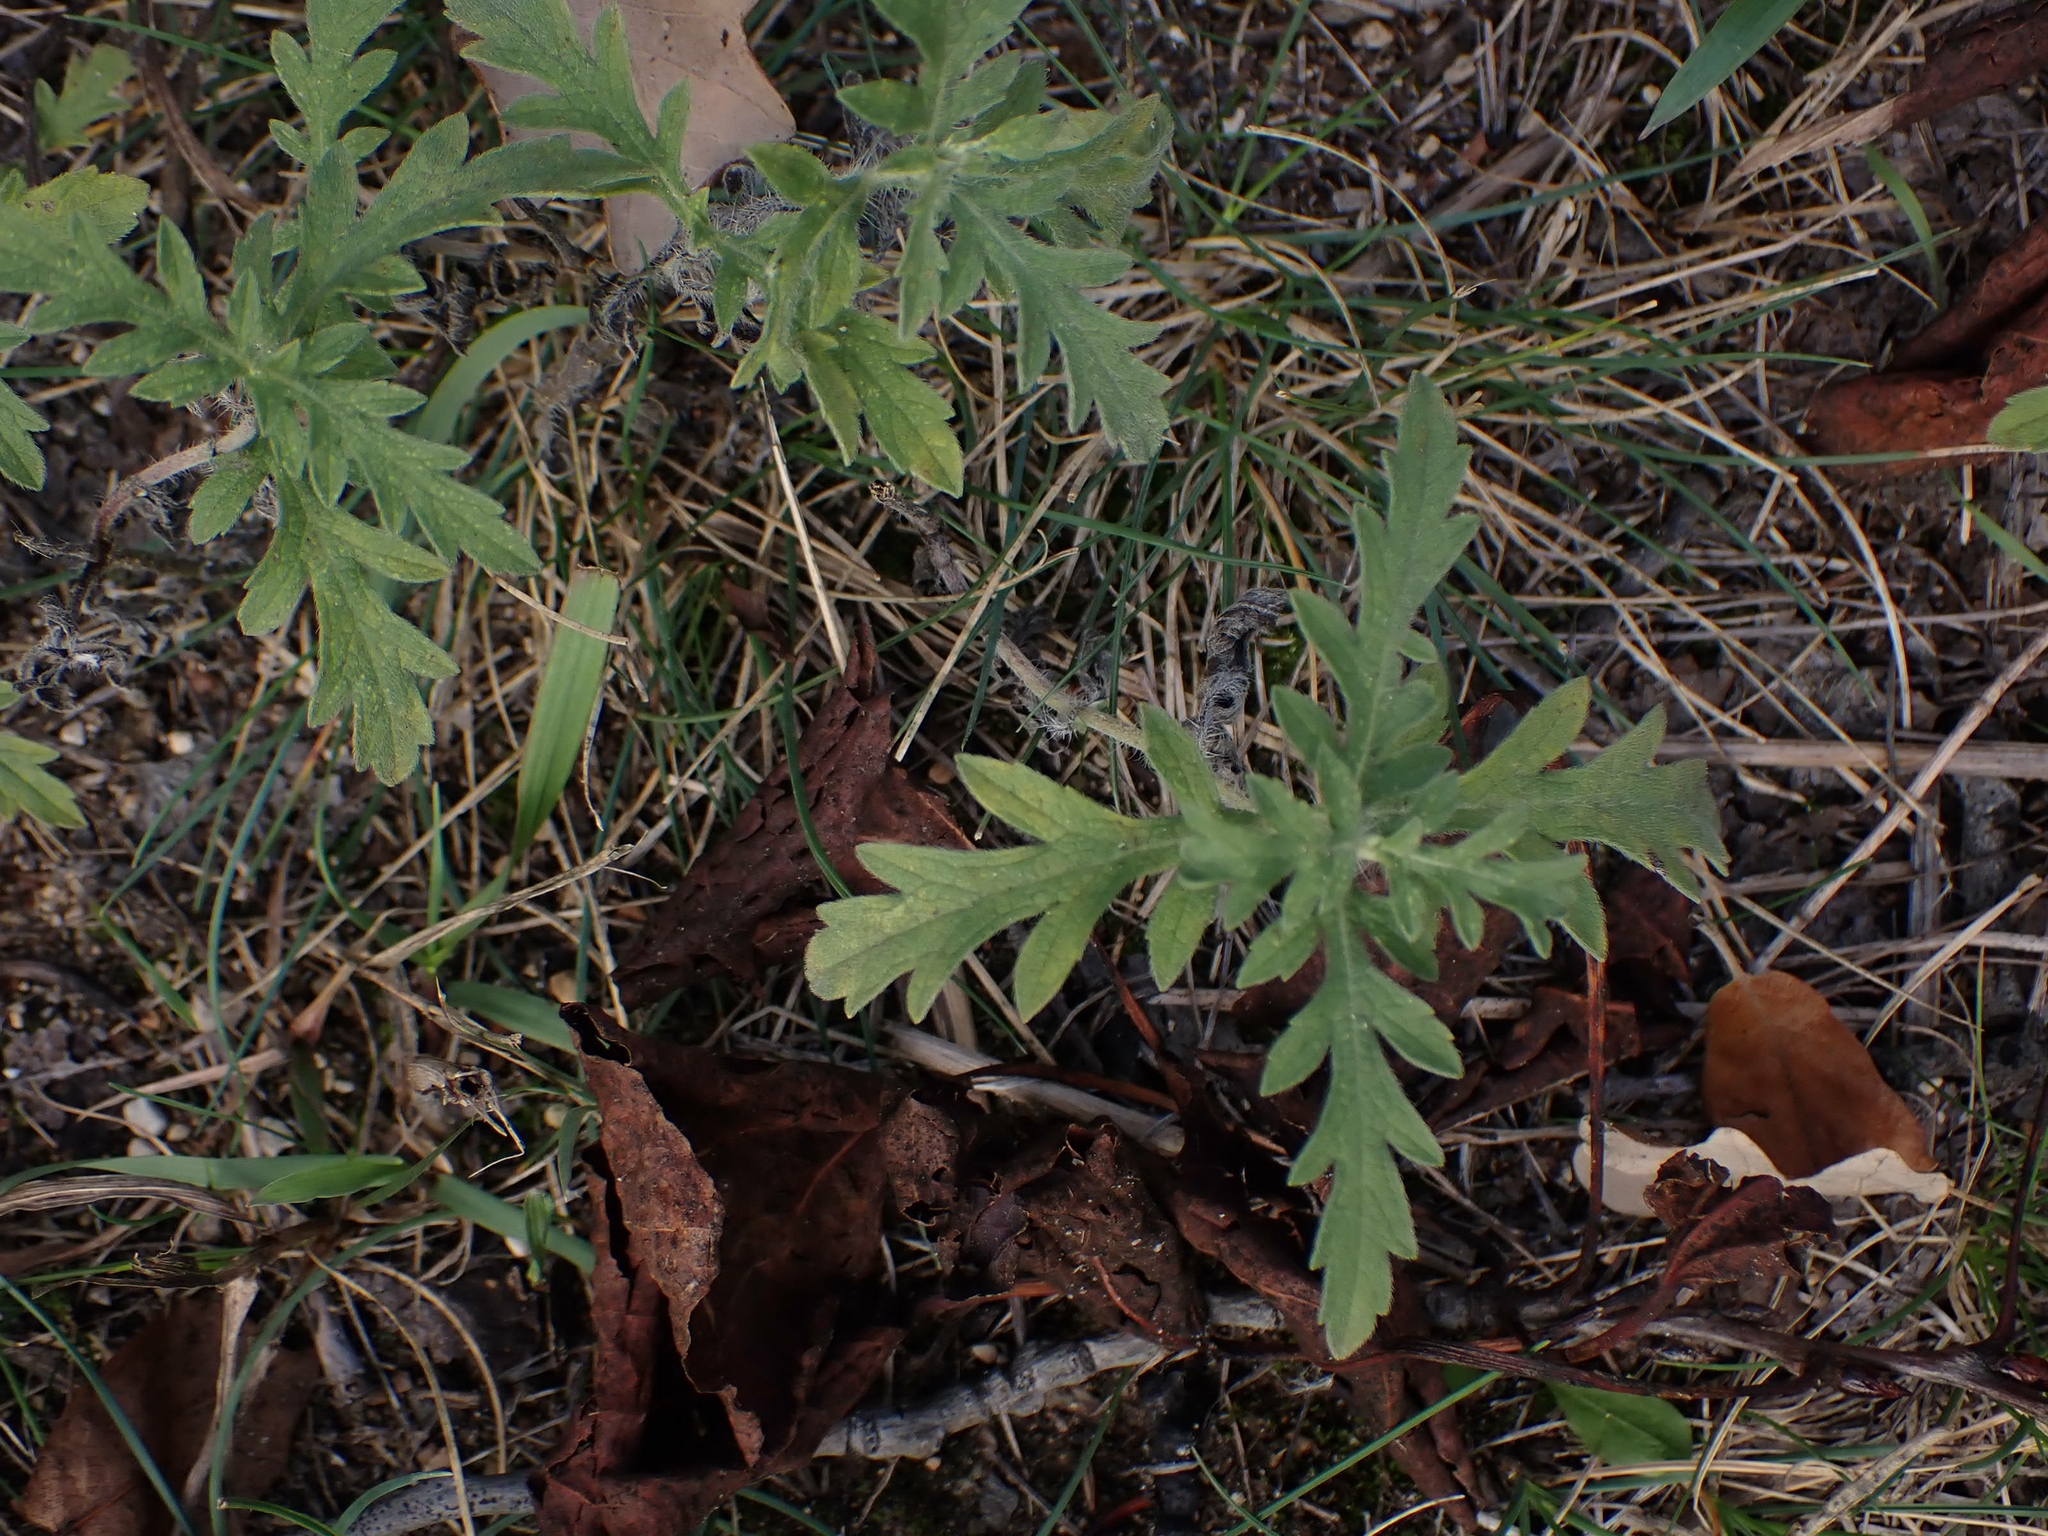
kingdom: Plantae
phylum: Tracheophyta
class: Magnoliopsida
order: Asterales
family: Asteraceae
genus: Ambrosia
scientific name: Ambrosia psilostachya
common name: Perennial ragweed
